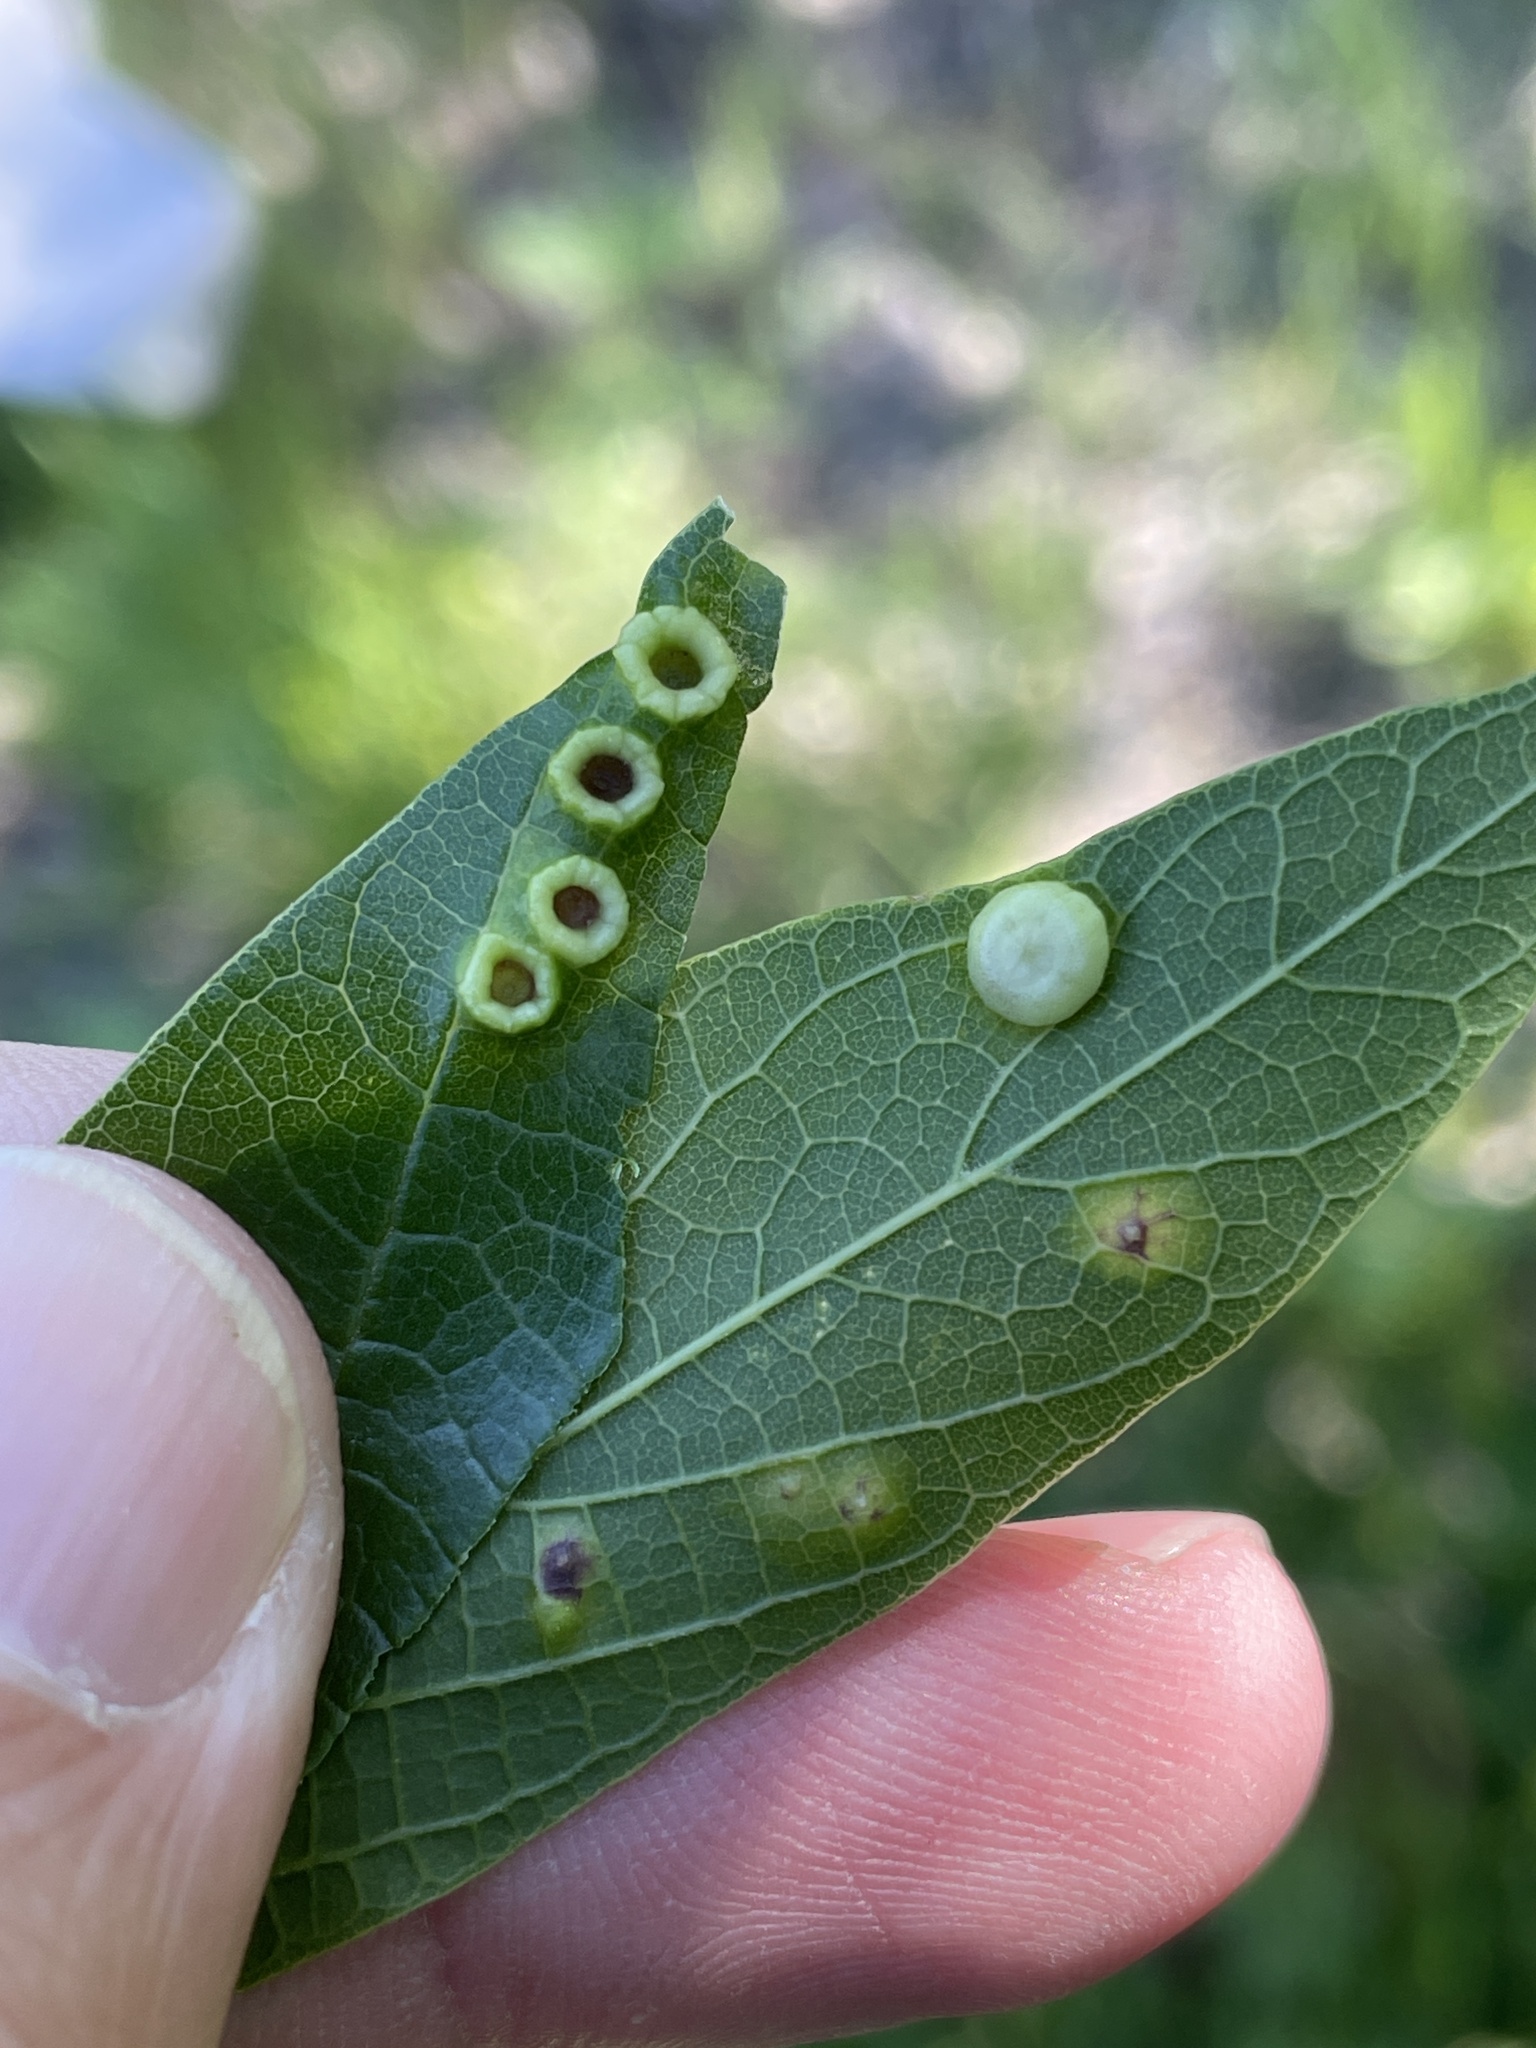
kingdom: Animalia
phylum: Arthropoda
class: Insecta
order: Hemiptera
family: Aphalaridae
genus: Pachypsylla
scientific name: Pachypsylla celtidismamma
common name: Hackberry nipplegall psyllid
